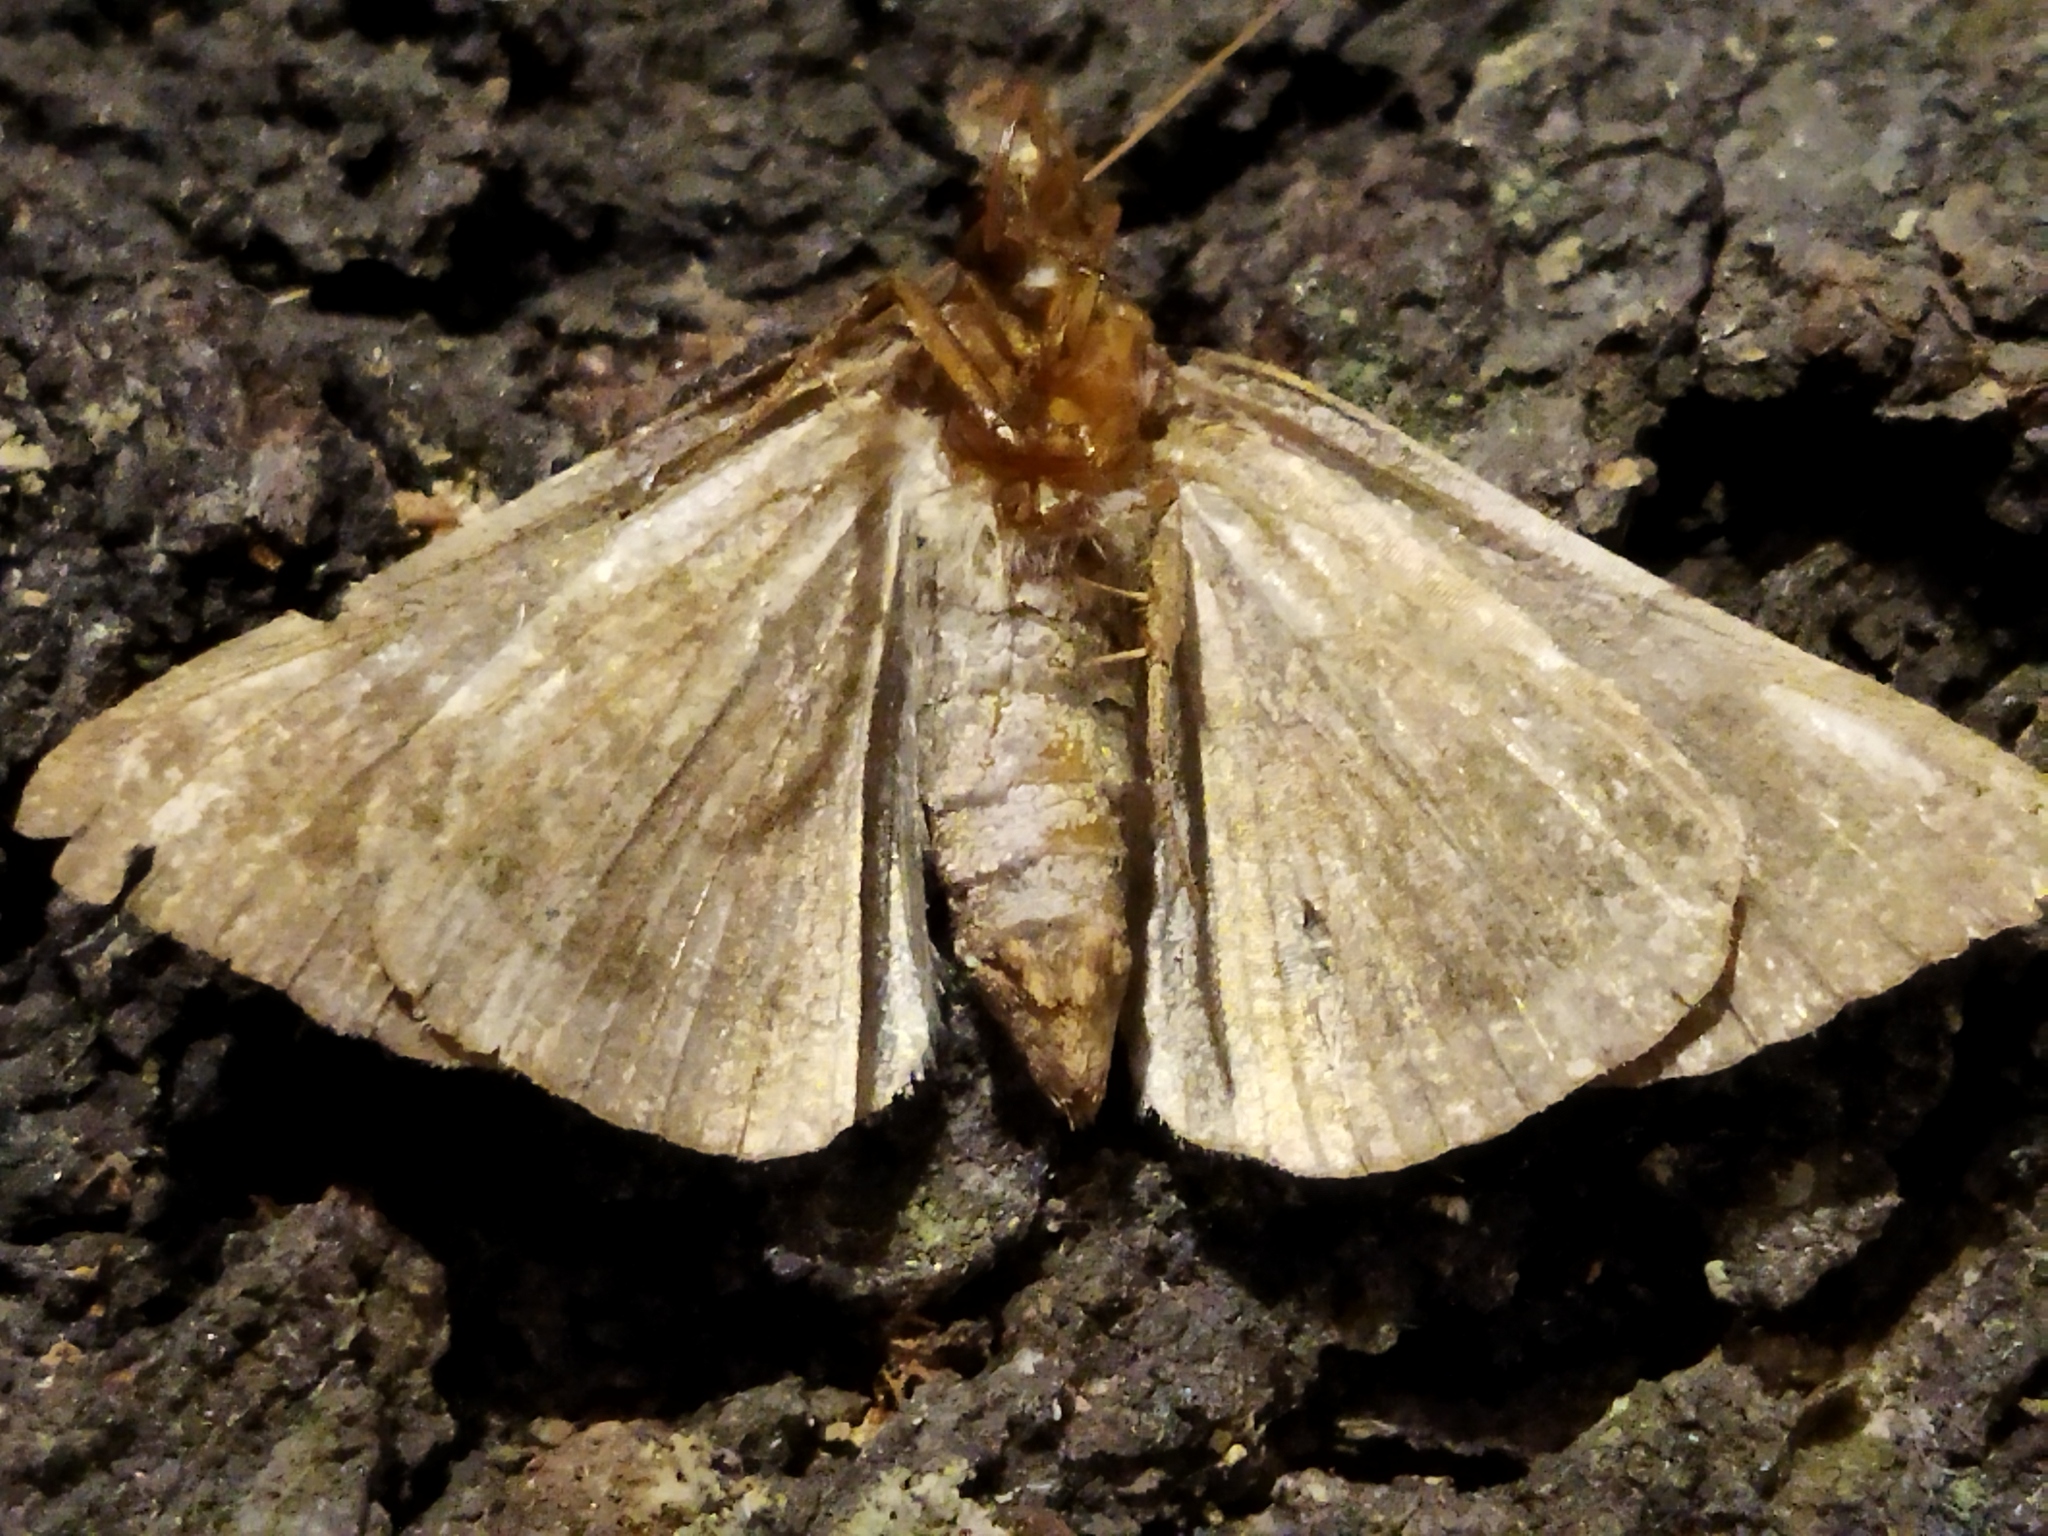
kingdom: Animalia
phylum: Arthropoda
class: Insecta
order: Lepidoptera
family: Erebidae
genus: Dysgonia
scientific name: Dysgonia algira
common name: Passenger
